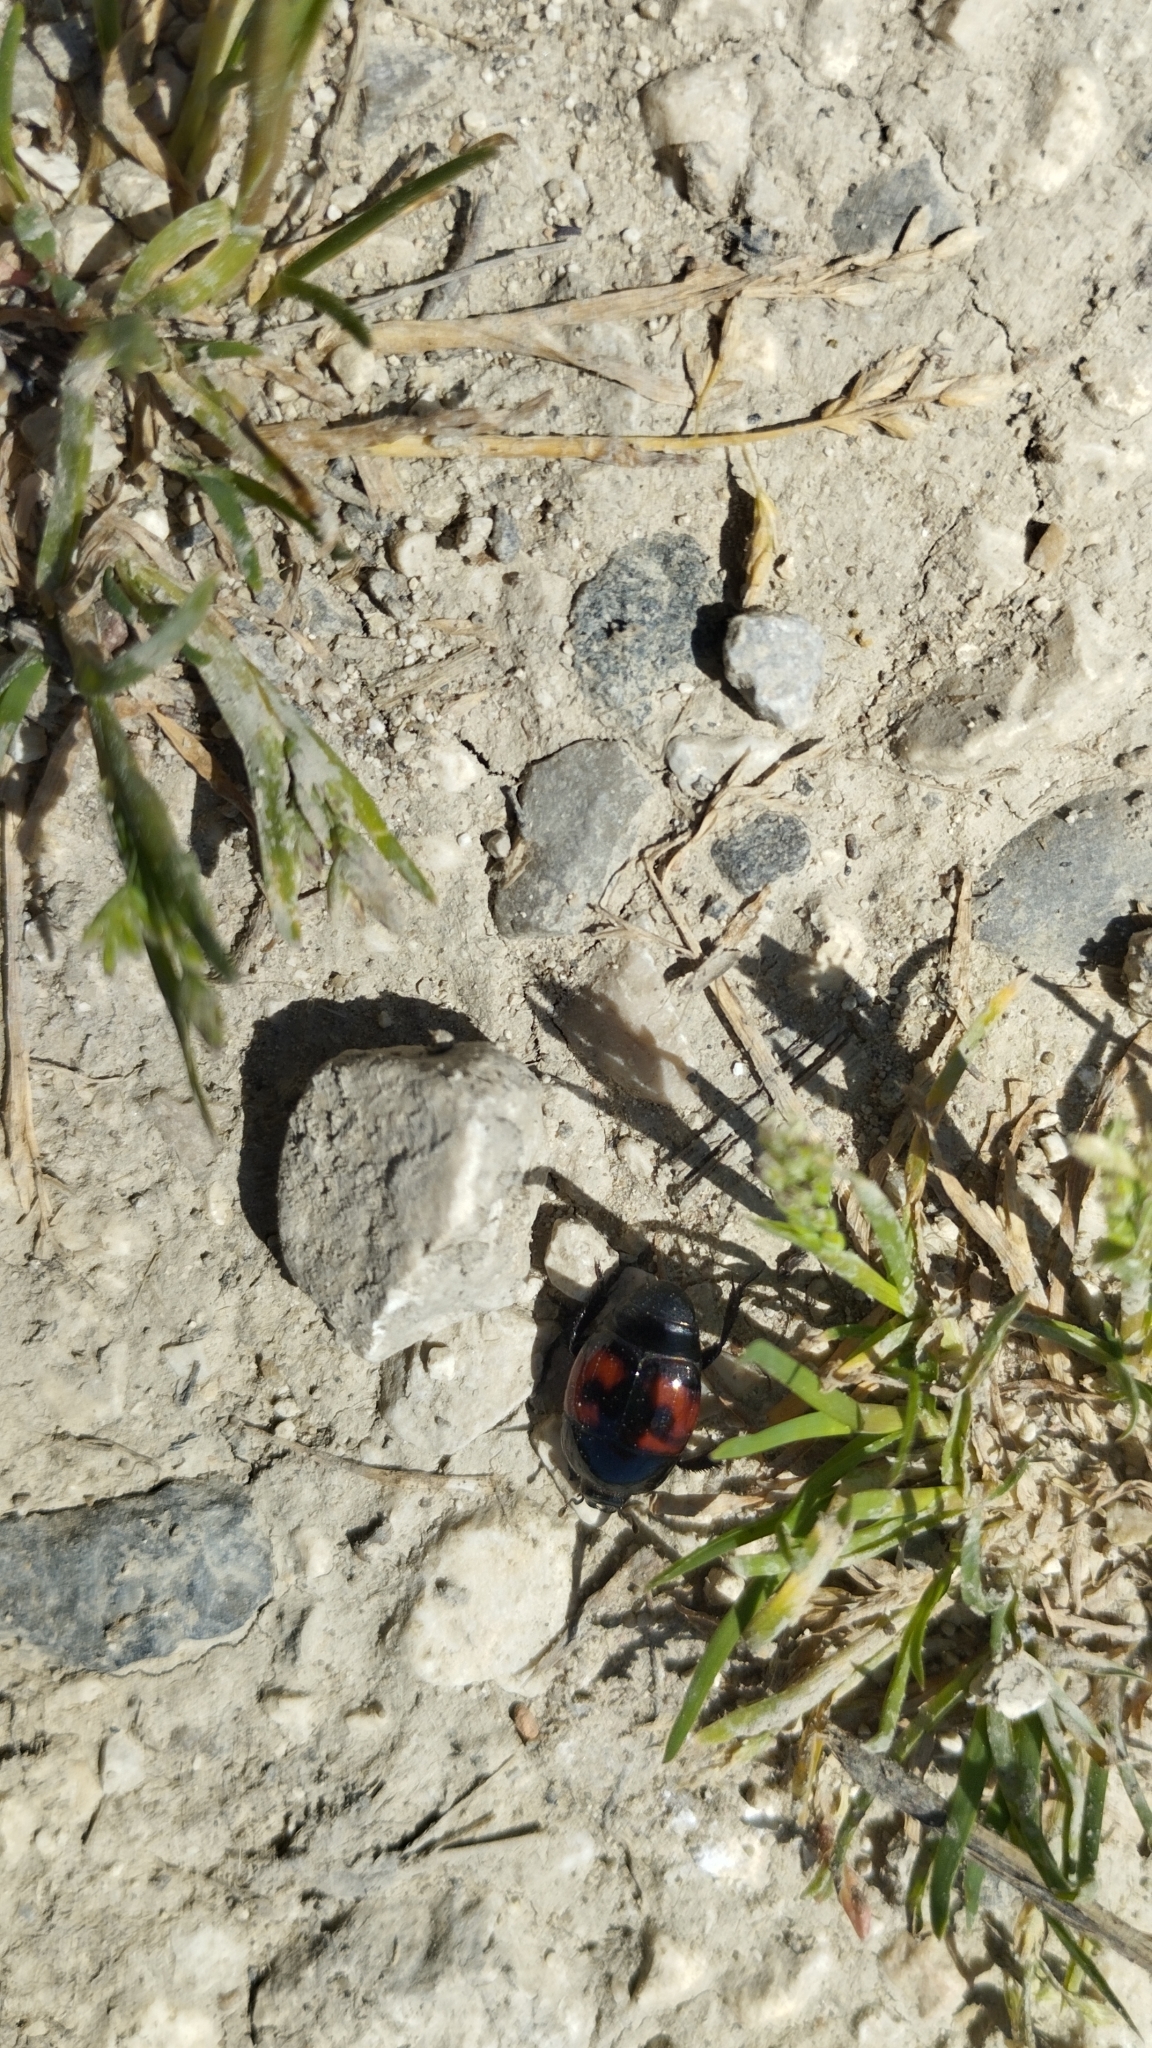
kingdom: Animalia
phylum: Arthropoda
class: Insecta
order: Coleoptera
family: Histeridae
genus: Hister
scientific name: Hister quadrimaculatus
